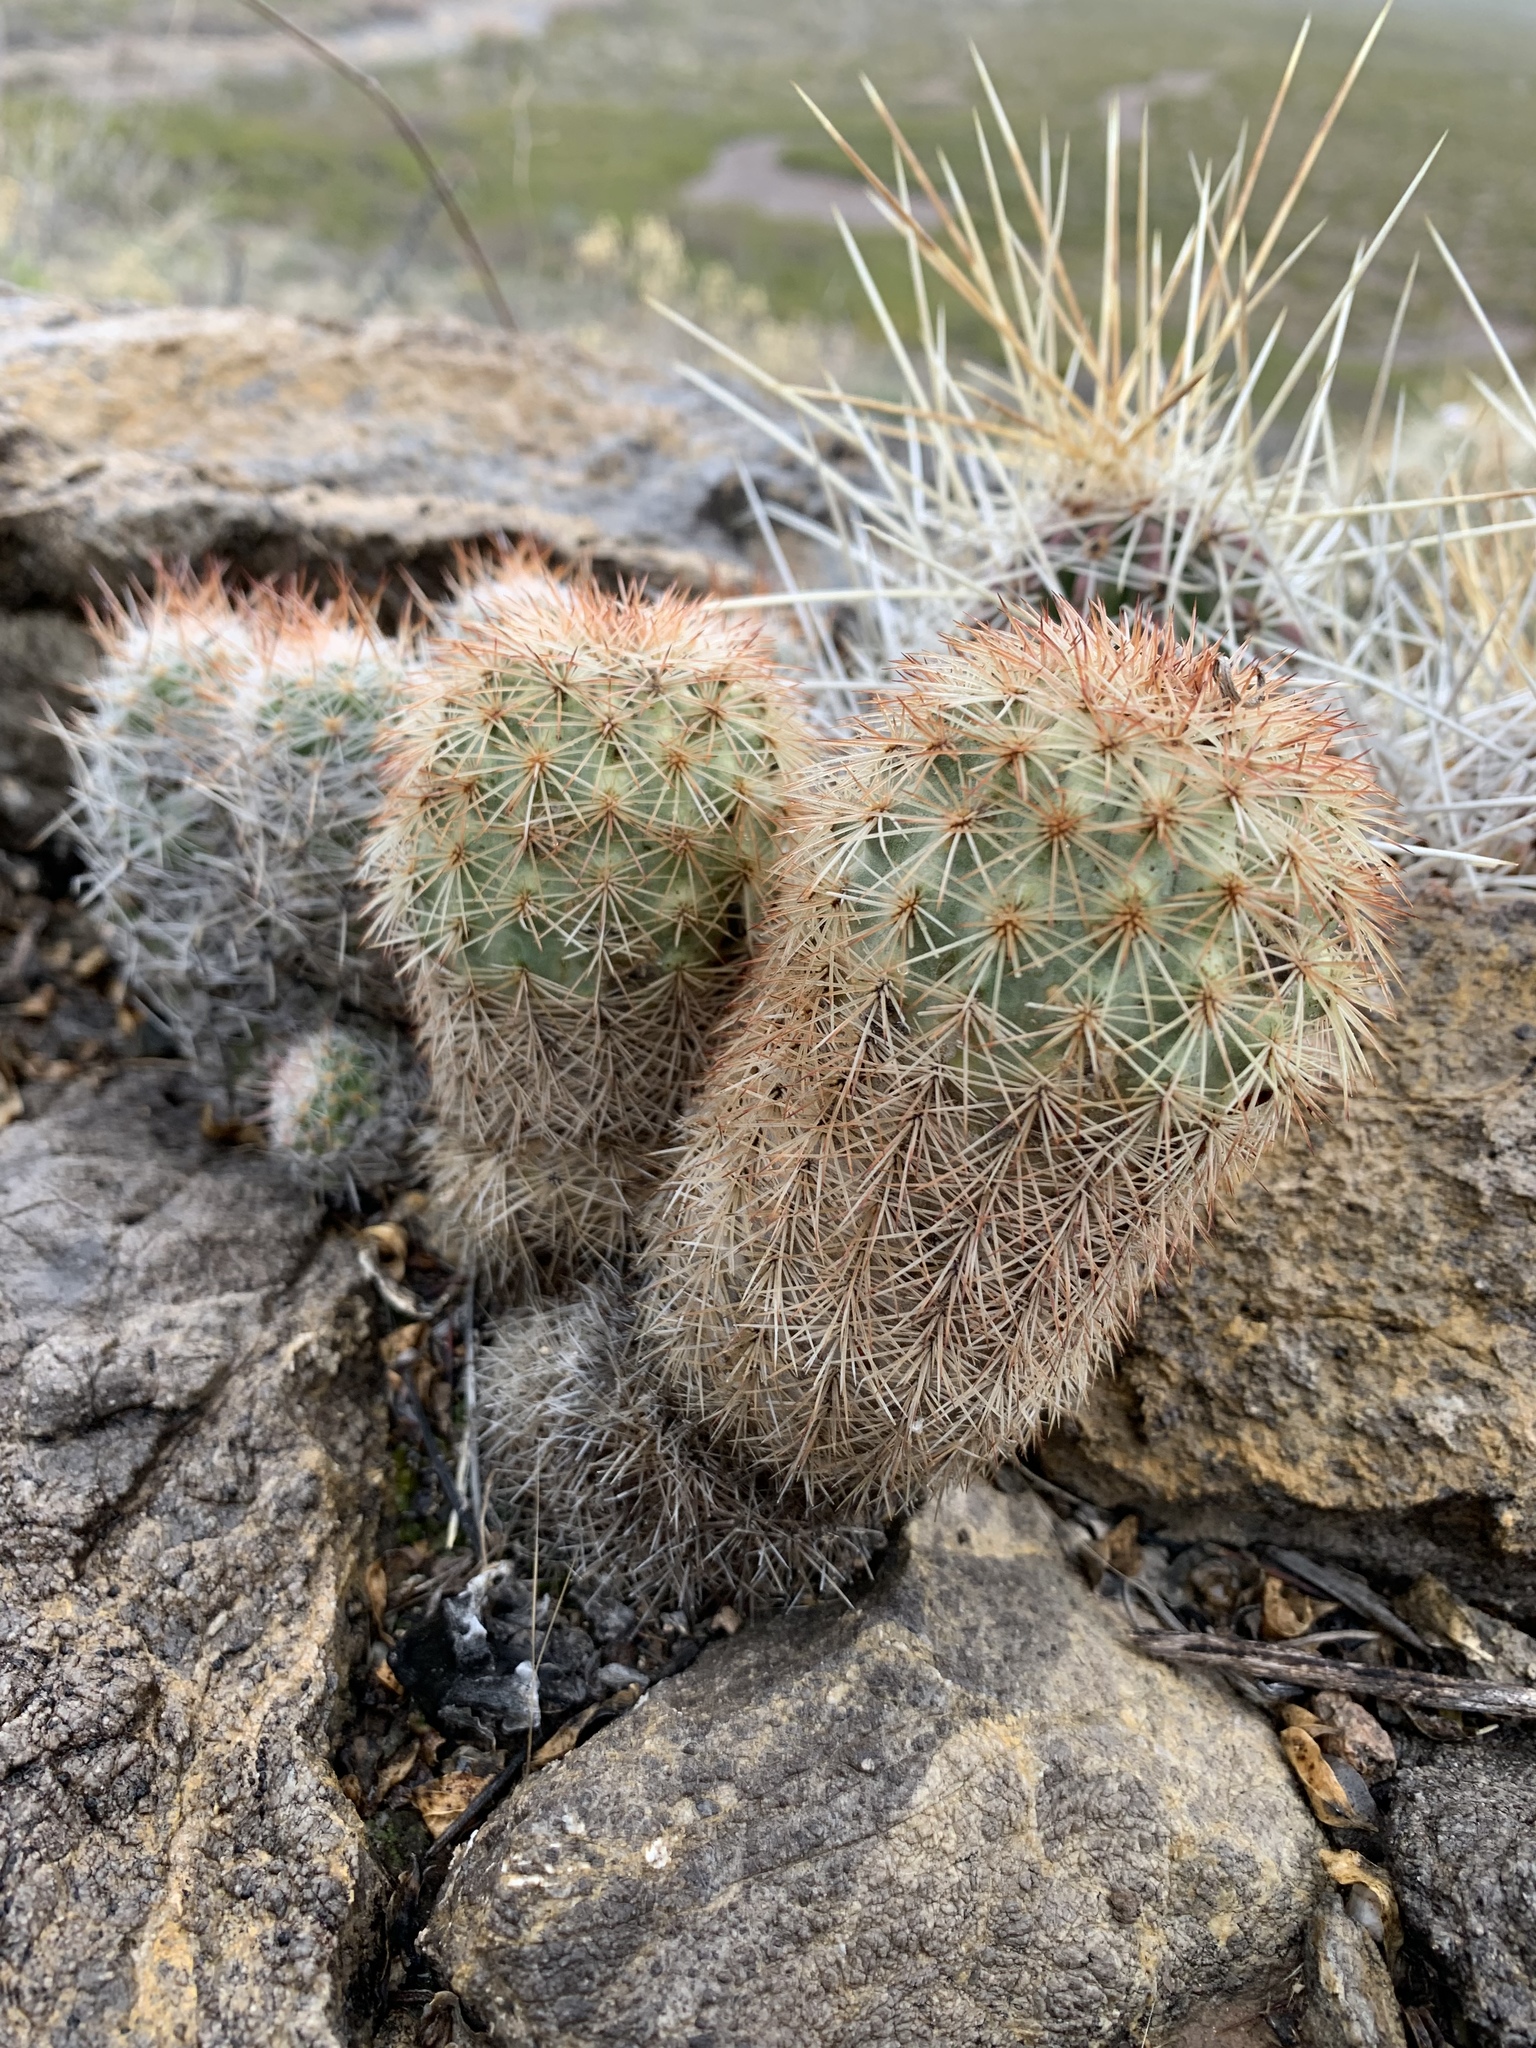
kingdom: Plantae
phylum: Tracheophyta
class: Magnoliopsida
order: Caryophyllales
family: Cactaceae
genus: Echinocereus
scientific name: Echinocereus dasyacanthus
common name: Spiny hedgehog cactus
